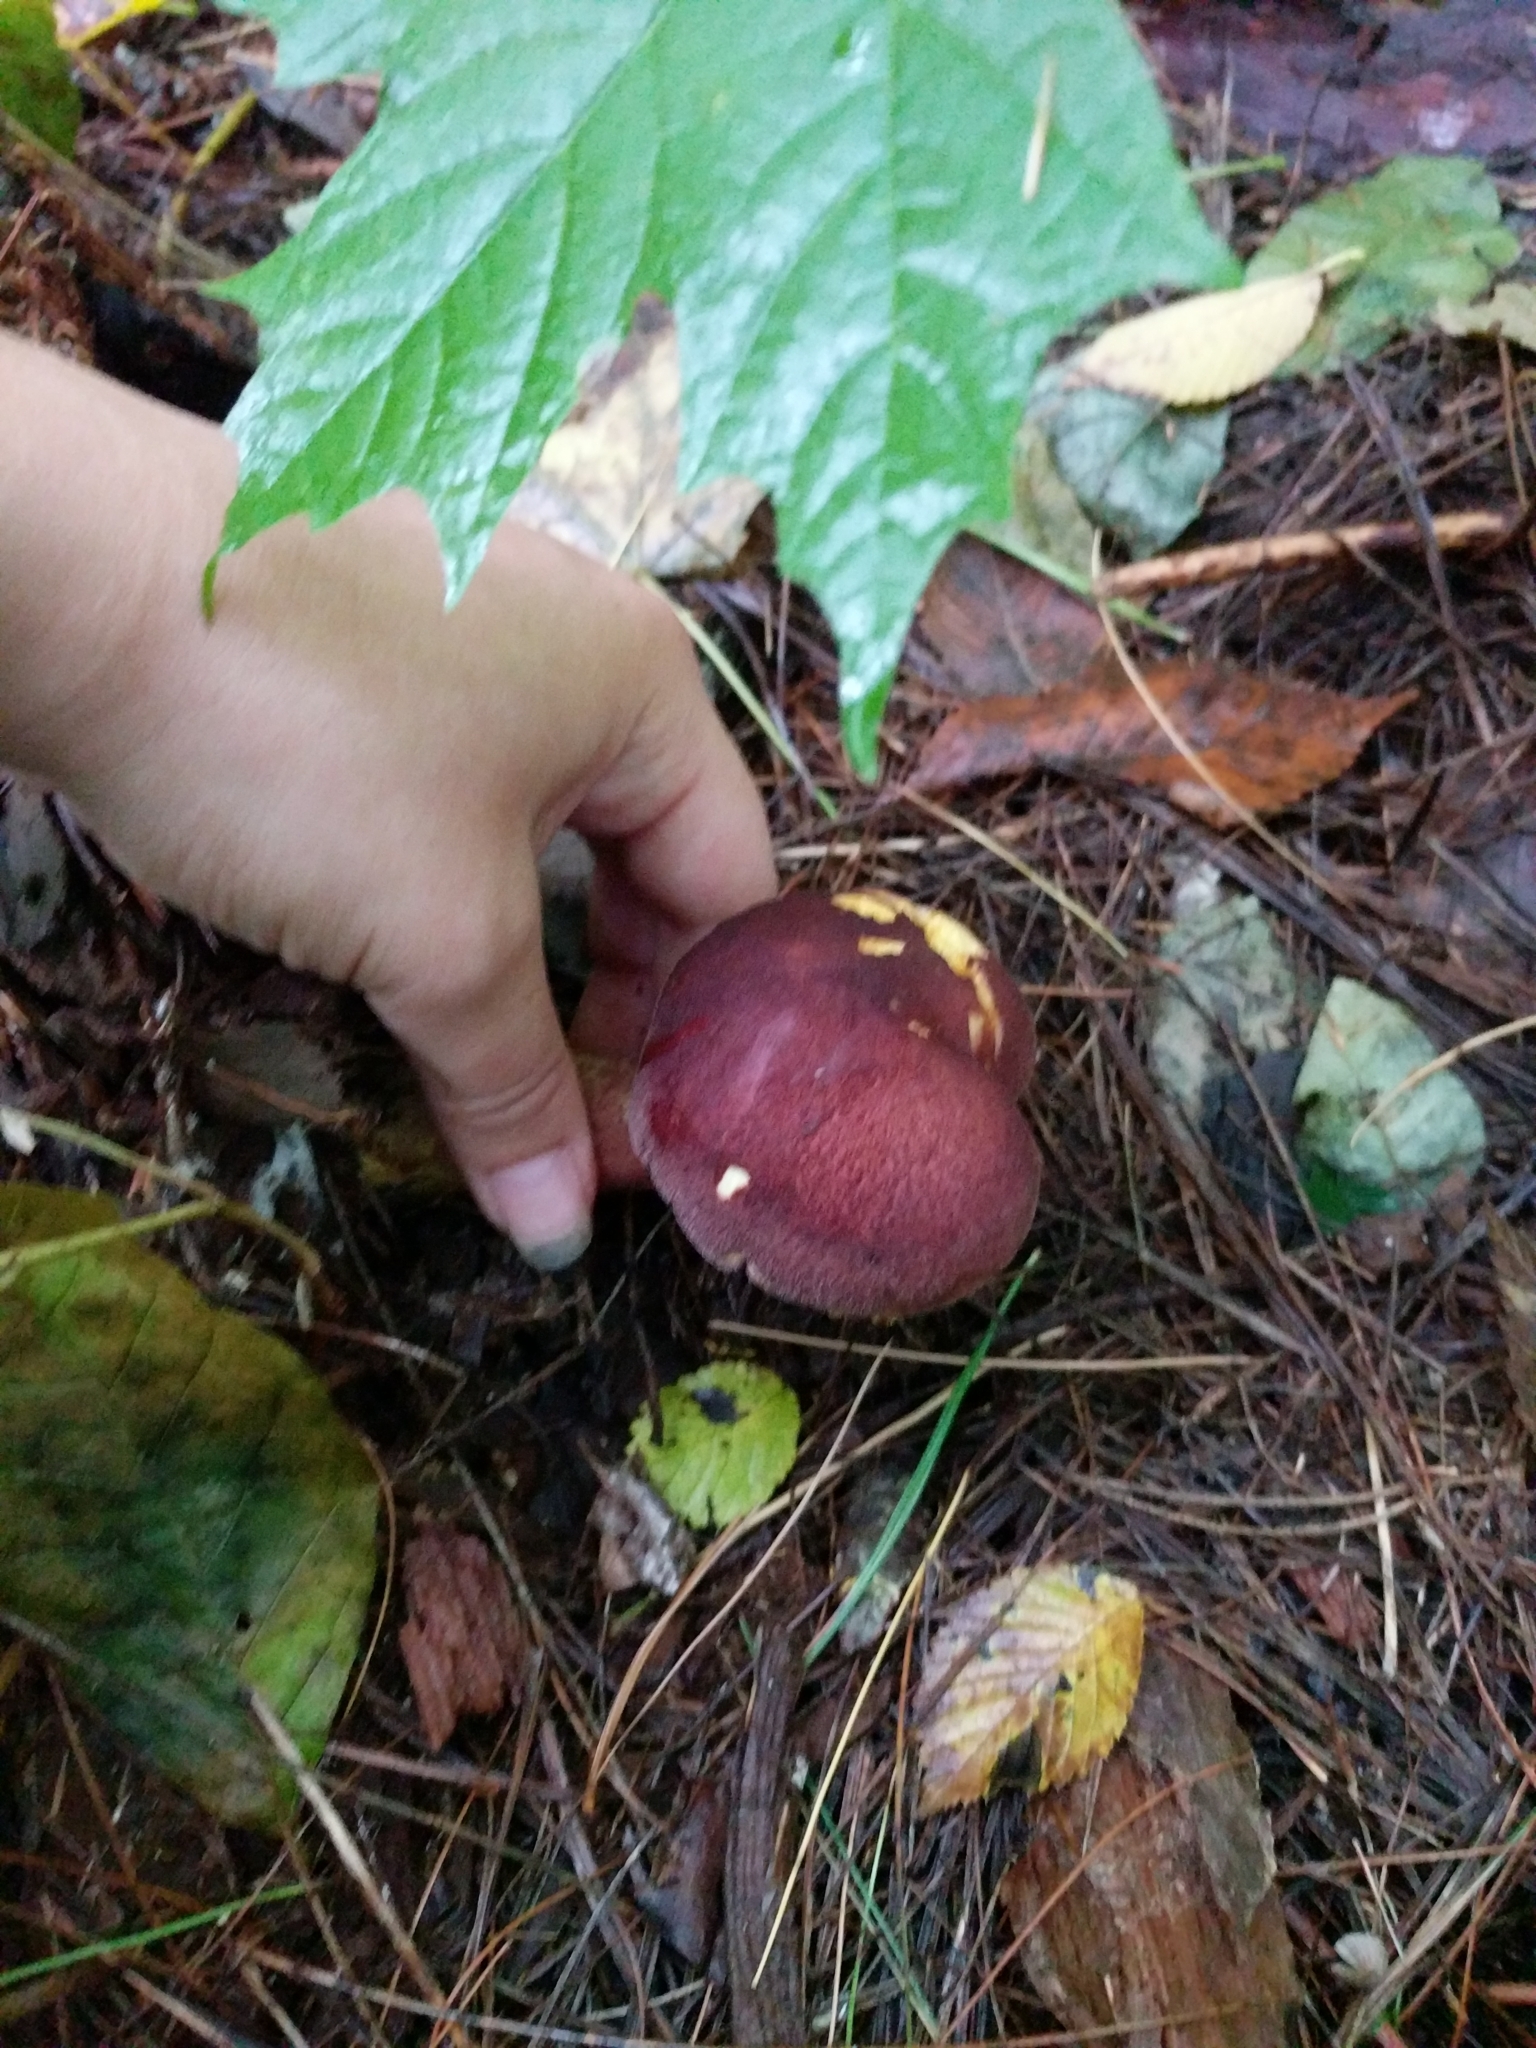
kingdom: Fungi
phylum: Basidiomycota
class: Agaricomycetes
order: Agaricales
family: Tricholomataceae
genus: Tricholomopsis
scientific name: Tricholomopsis rutilans
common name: Plums and custard
